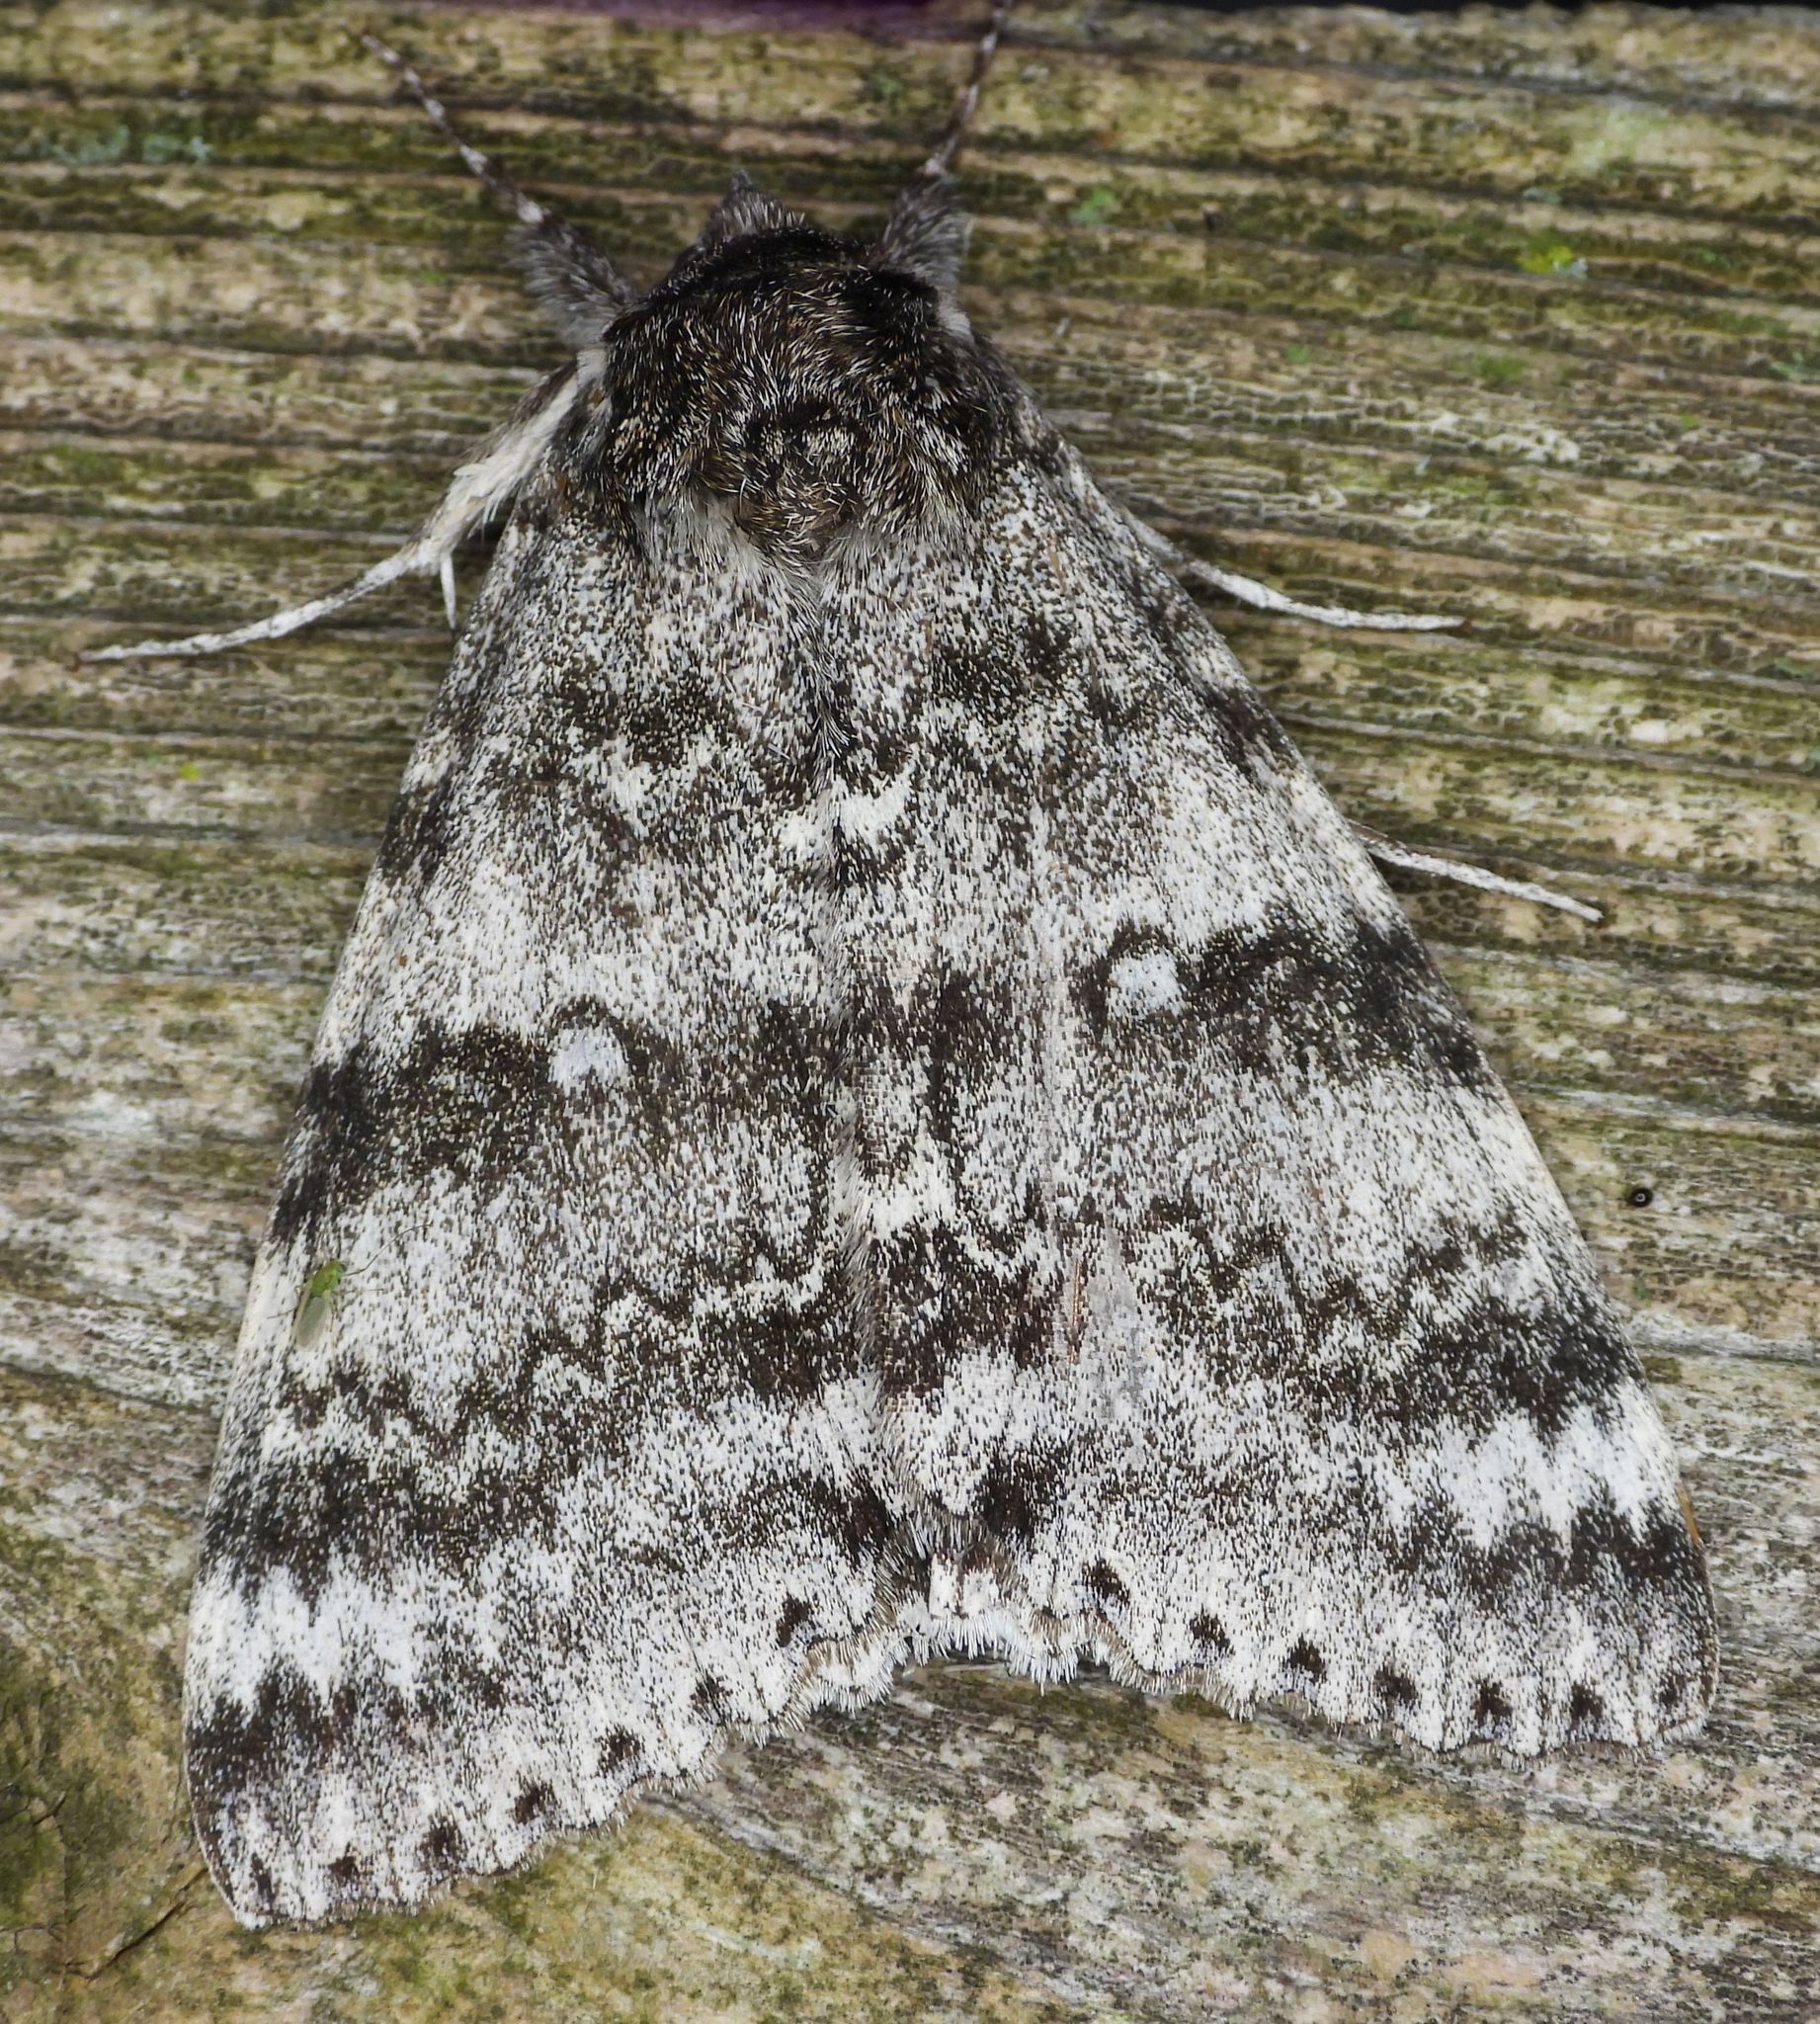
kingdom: Animalia
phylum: Arthropoda
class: Insecta
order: Lepidoptera
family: Erebidae
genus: Catocala
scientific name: Catocala relicta
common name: White underwing
